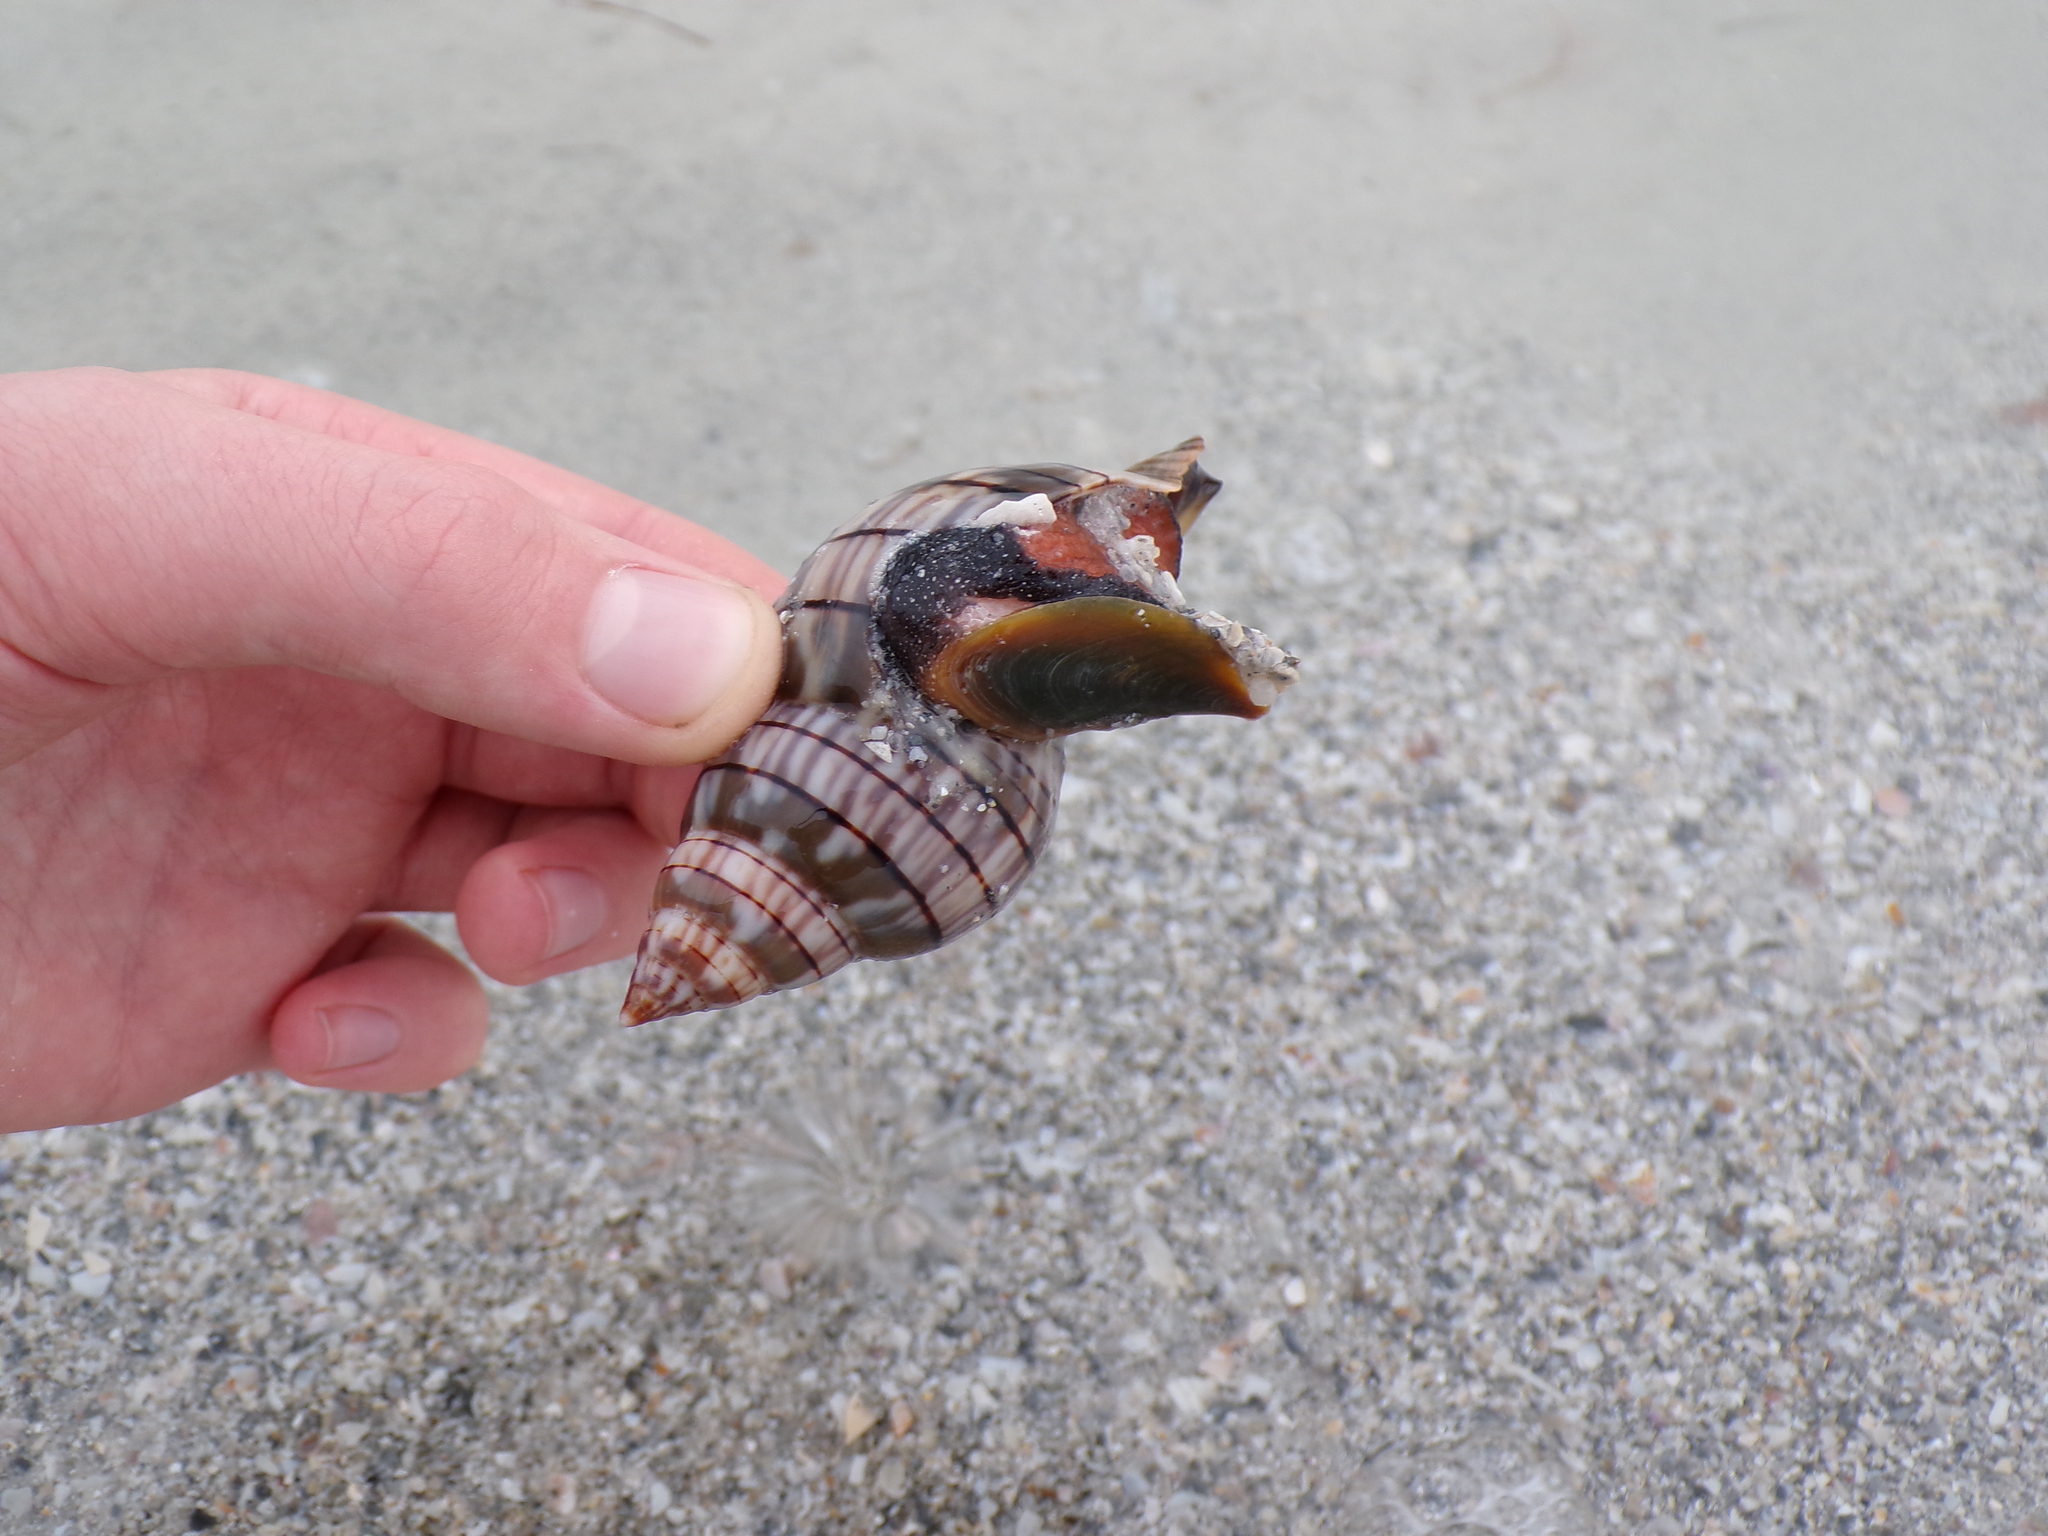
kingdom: Animalia
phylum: Mollusca
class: Gastropoda
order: Neogastropoda
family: Fasciolariidae
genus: Cinctura
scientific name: Cinctura hunteria
